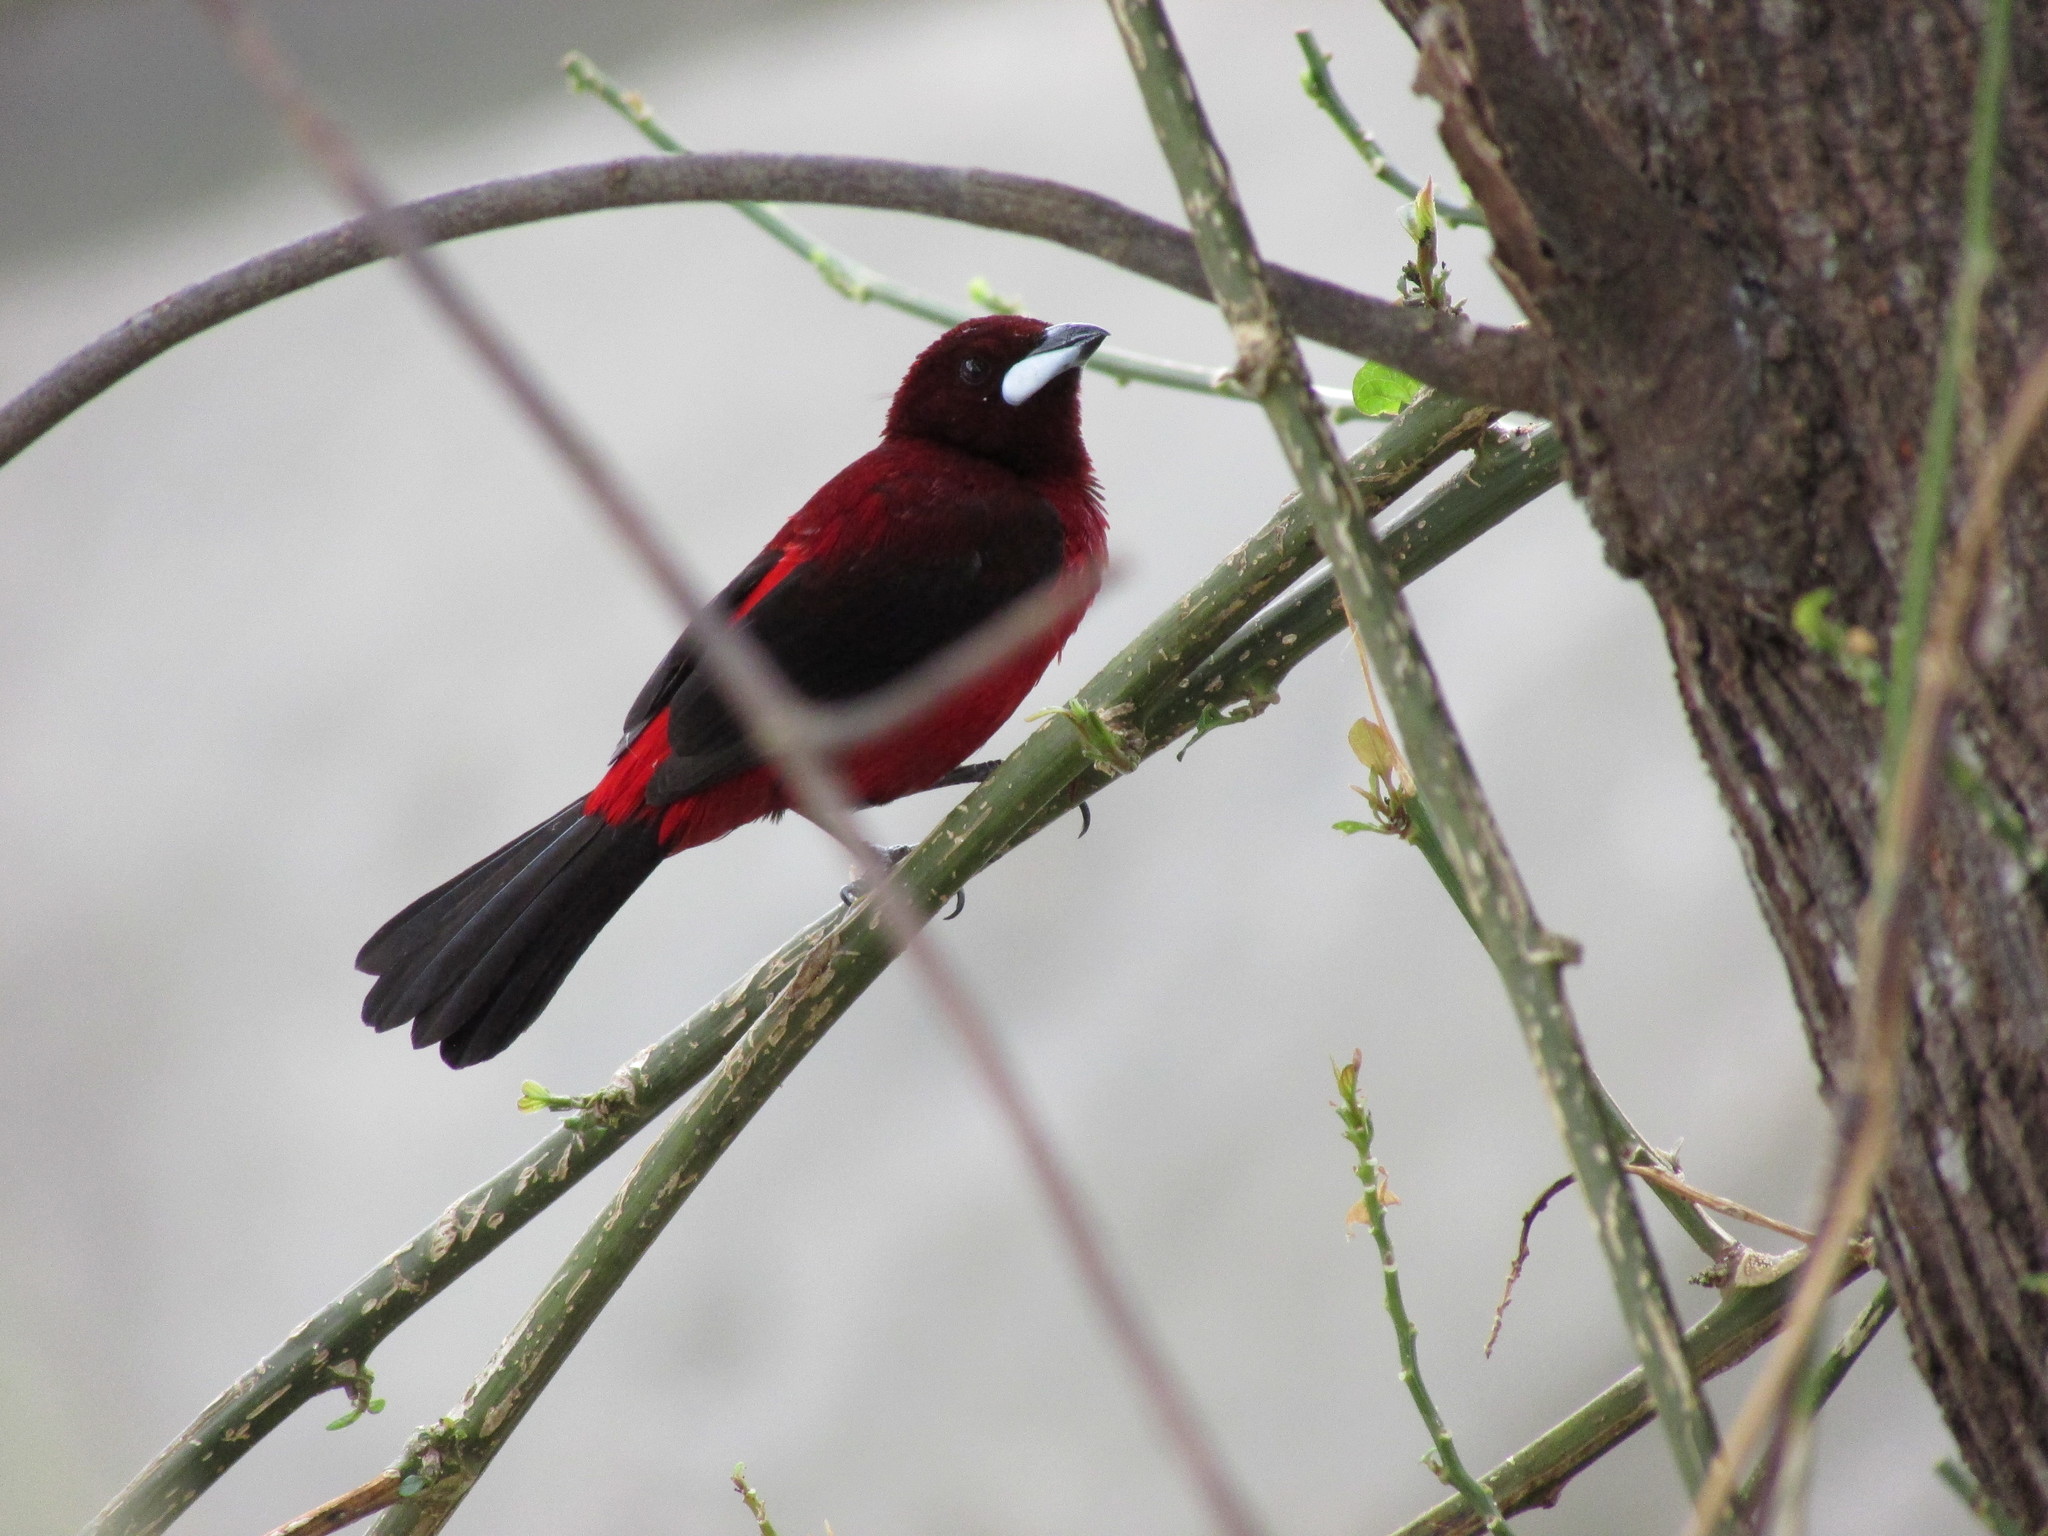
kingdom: Animalia
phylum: Chordata
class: Aves
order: Passeriformes
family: Thraupidae
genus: Ramphocelus
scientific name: Ramphocelus dimidiatus
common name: Crimson-backed tanager
